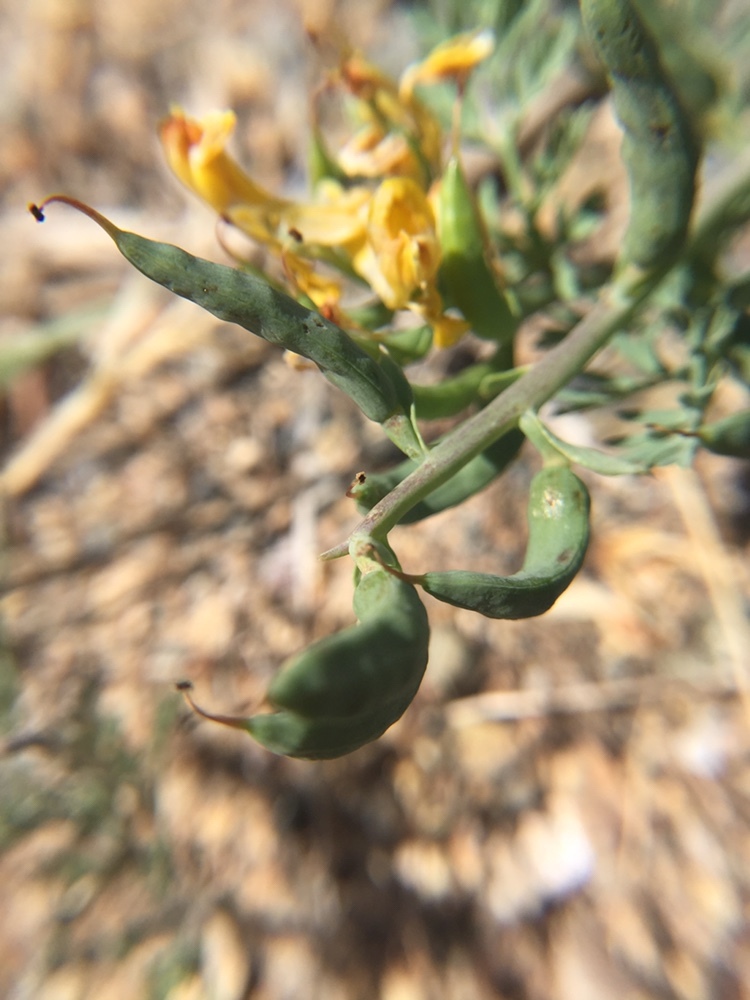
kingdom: Plantae
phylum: Tracheophyta
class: Magnoliopsida
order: Ranunculales
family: Papaveraceae
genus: Corydalis
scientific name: Corydalis aurea
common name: Golden corydalis
